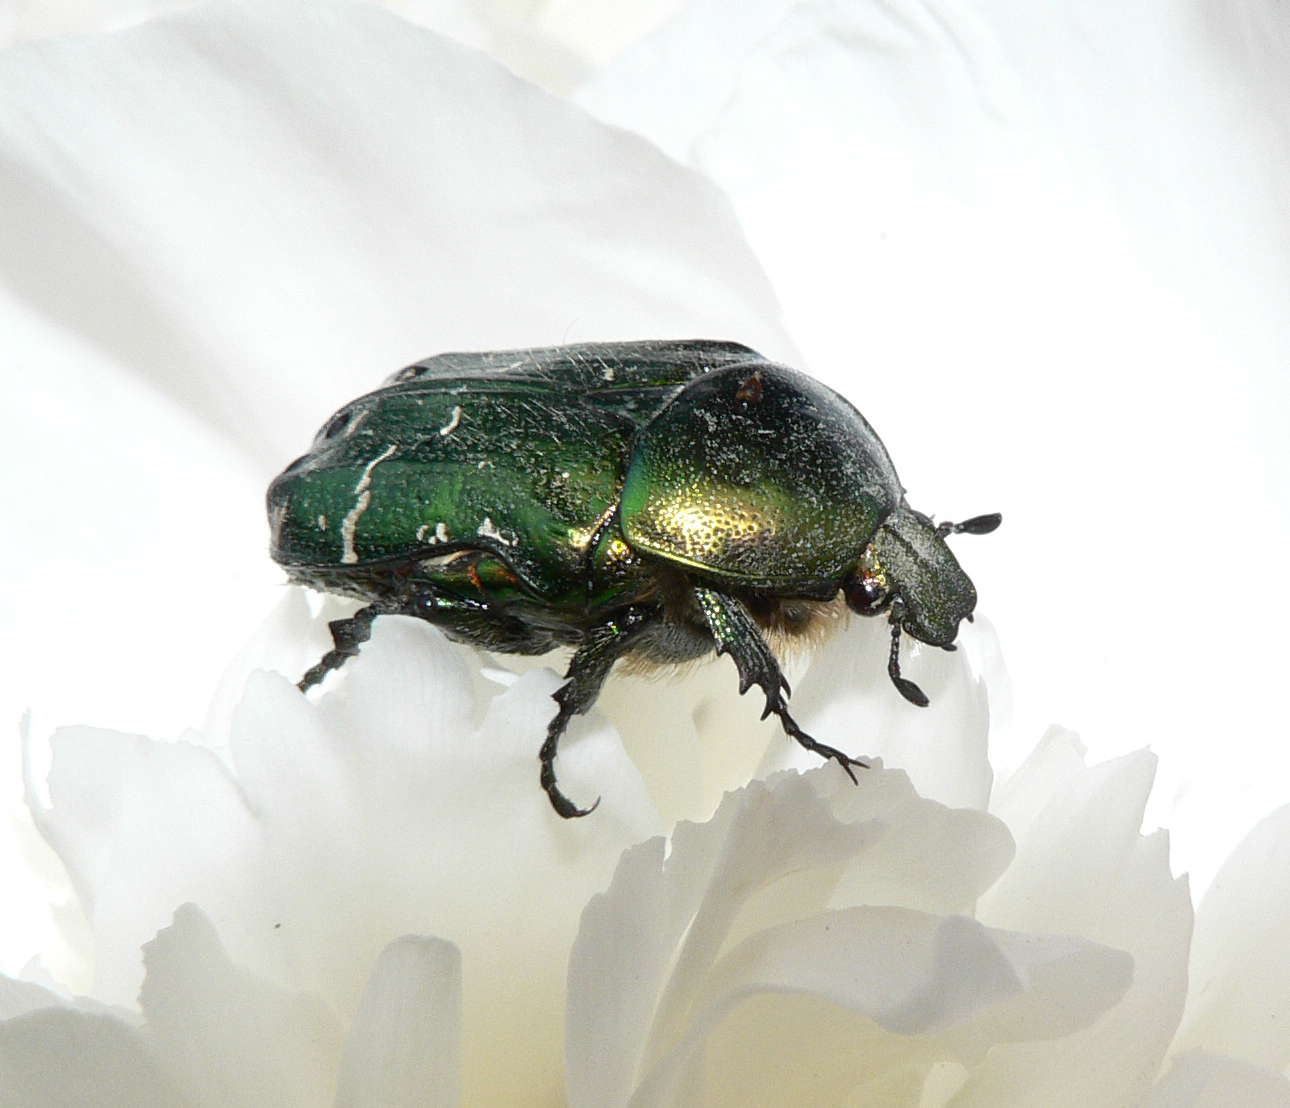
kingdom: Animalia
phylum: Arthropoda
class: Insecta
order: Coleoptera
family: Scarabaeidae
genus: Cetonia
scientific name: Cetonia aurata
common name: Rose chafer
